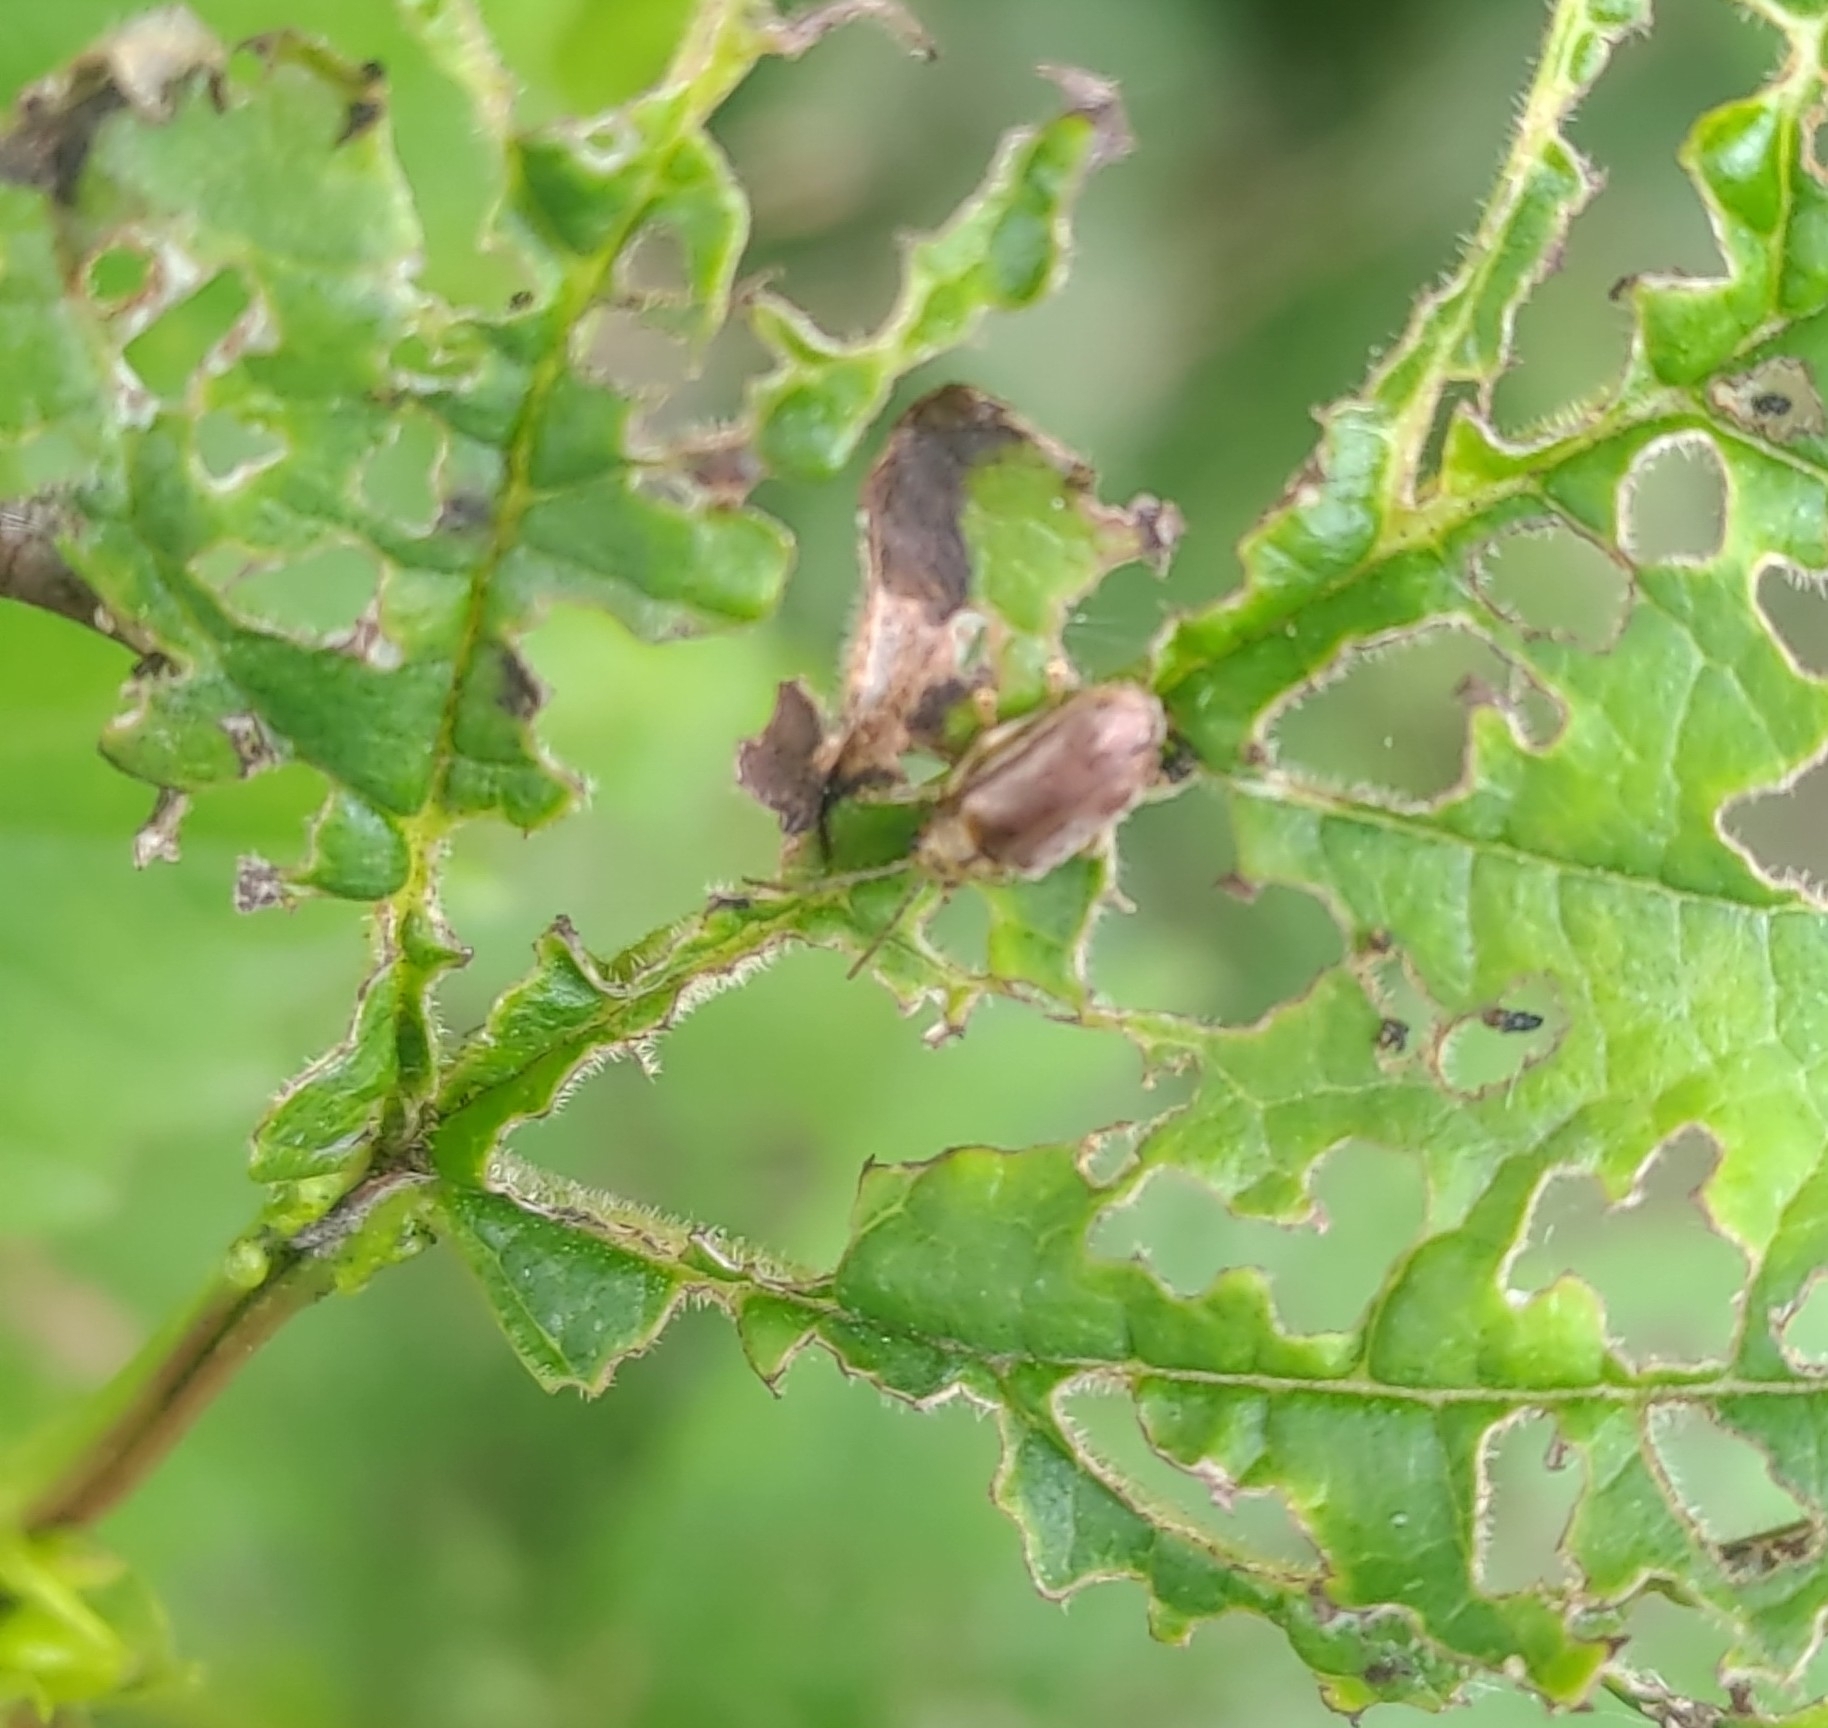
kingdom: Animalia
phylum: Arthropoda
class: Insecta
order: Coleoptera
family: Chrysomelidae
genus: Pyrrhalta
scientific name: Pyrrhalta viburni
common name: Guelder-rose leaf beetle
